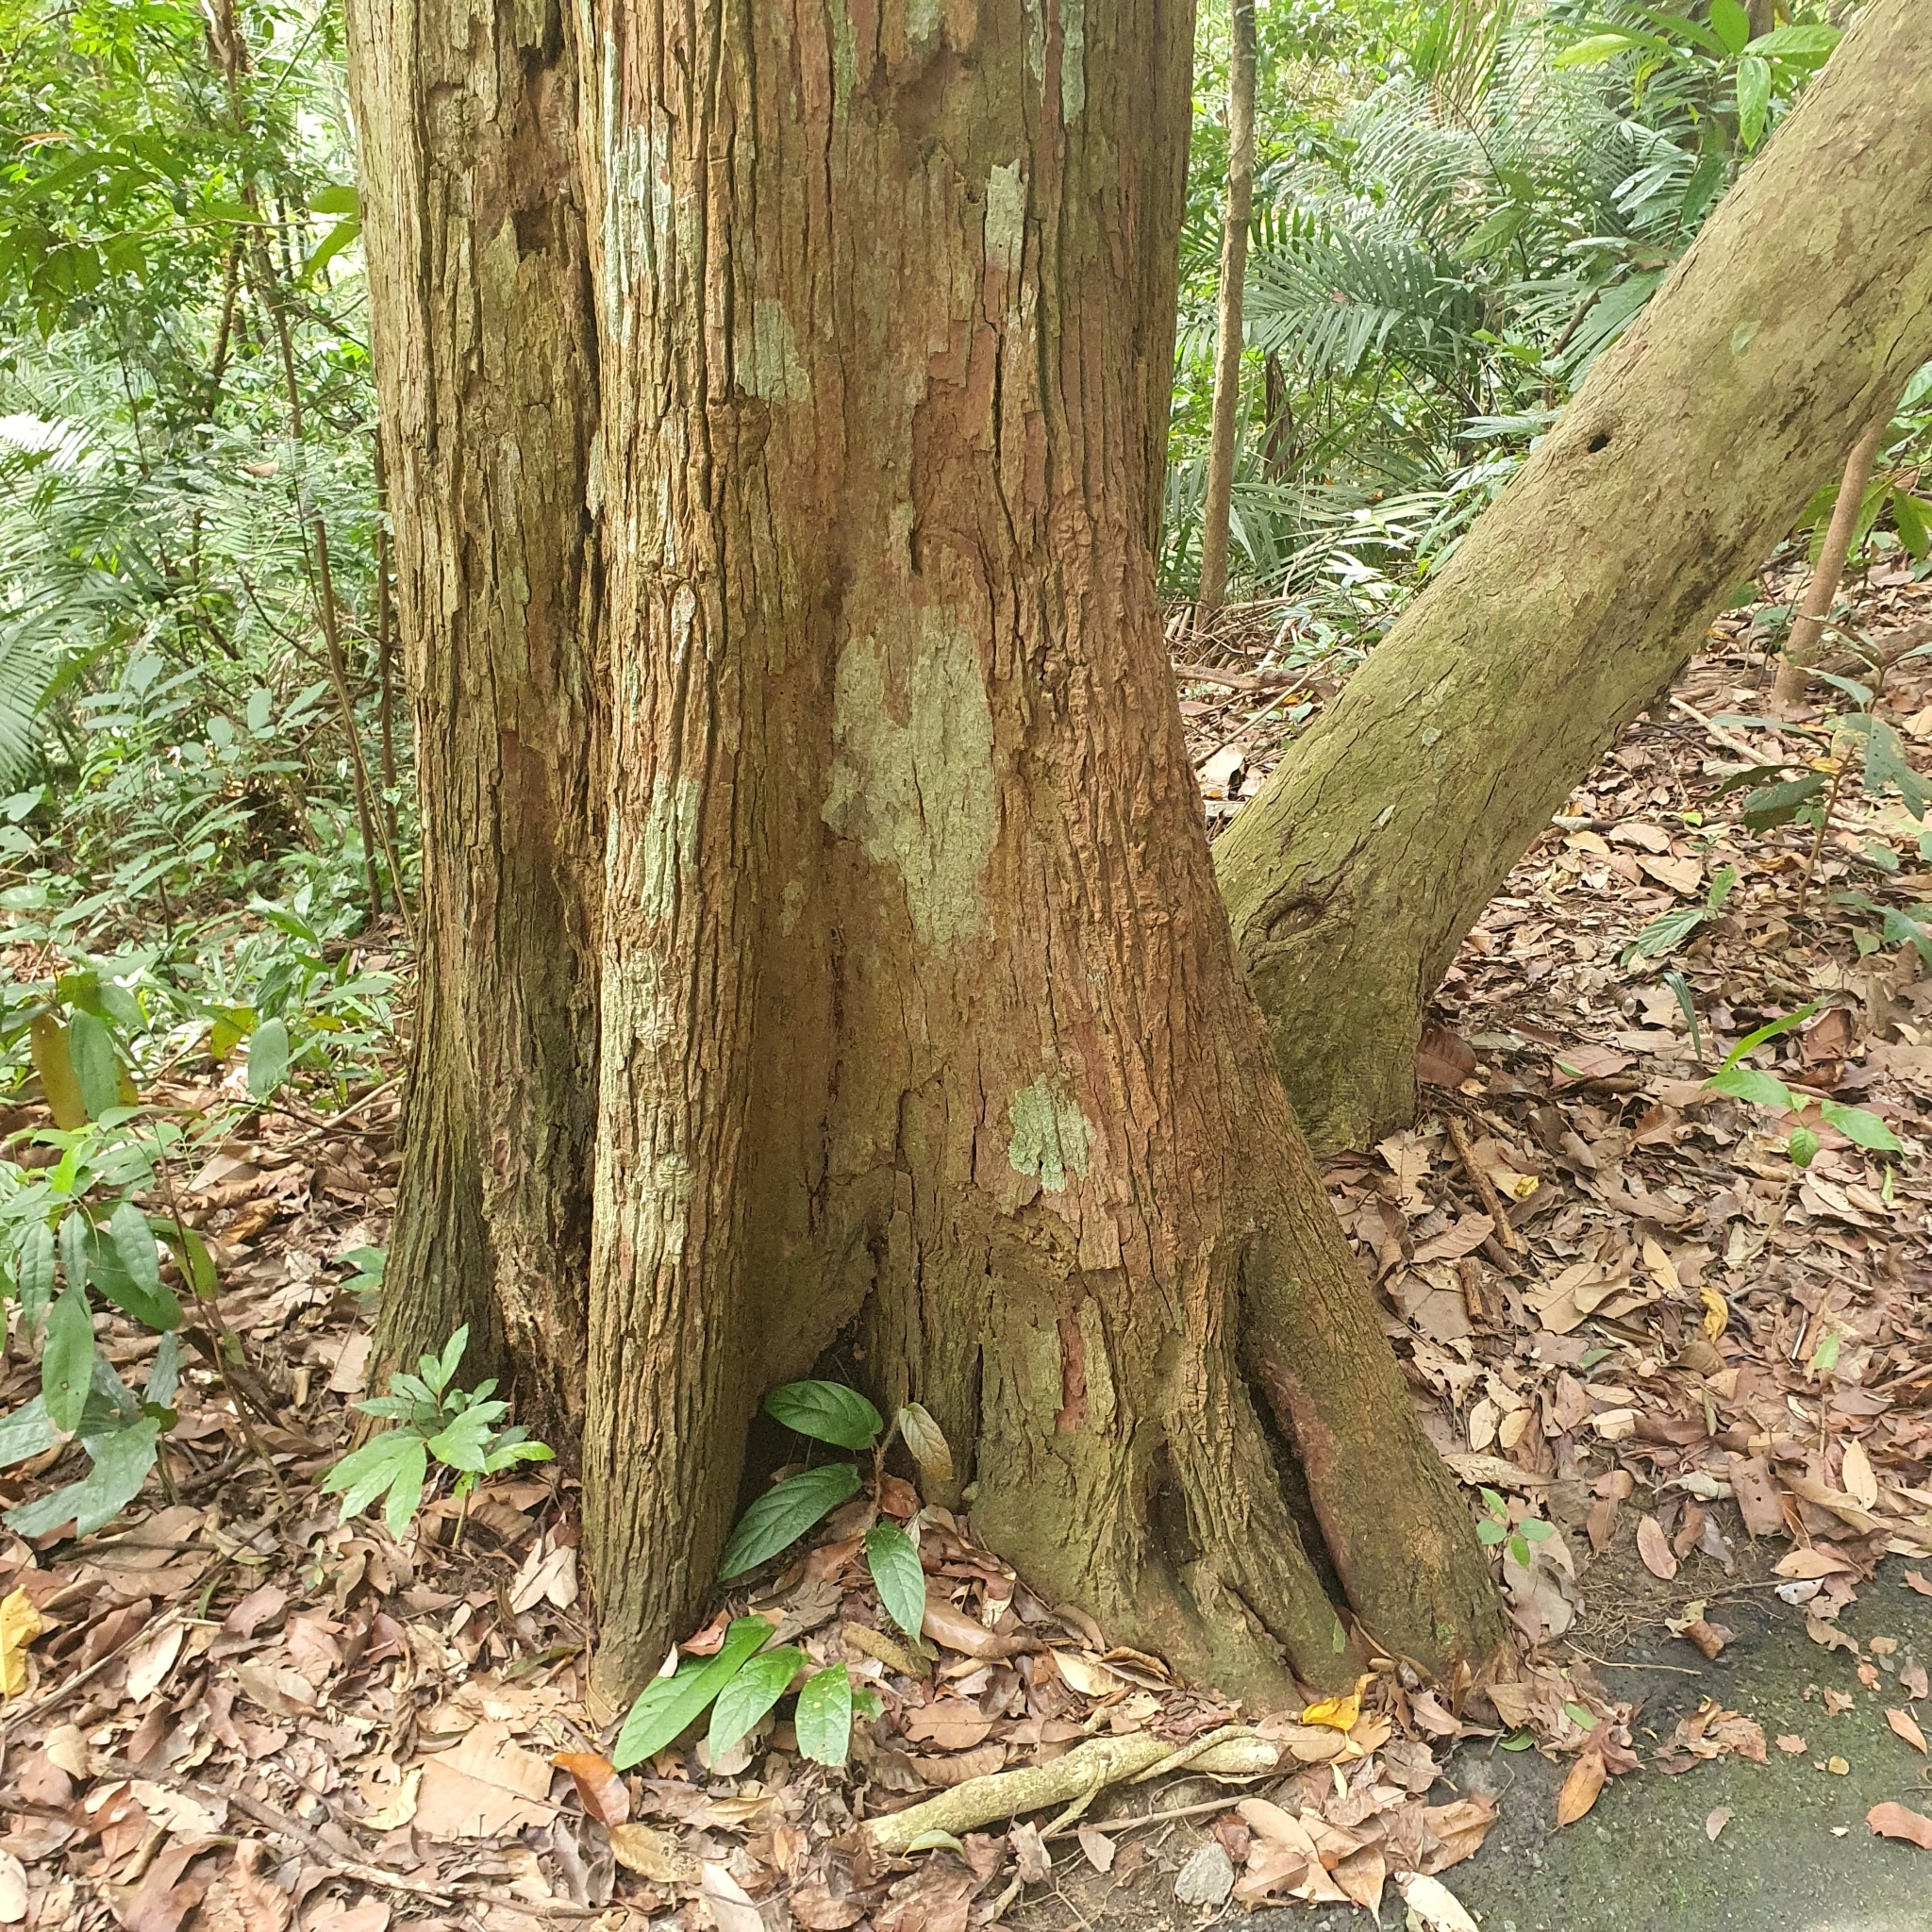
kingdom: Plantae
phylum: Tracheophyta
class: Magnoliopsida
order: Sapindales
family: Anacardiaceae
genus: Gluta
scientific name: Gluta wallichii
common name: Common rengas
